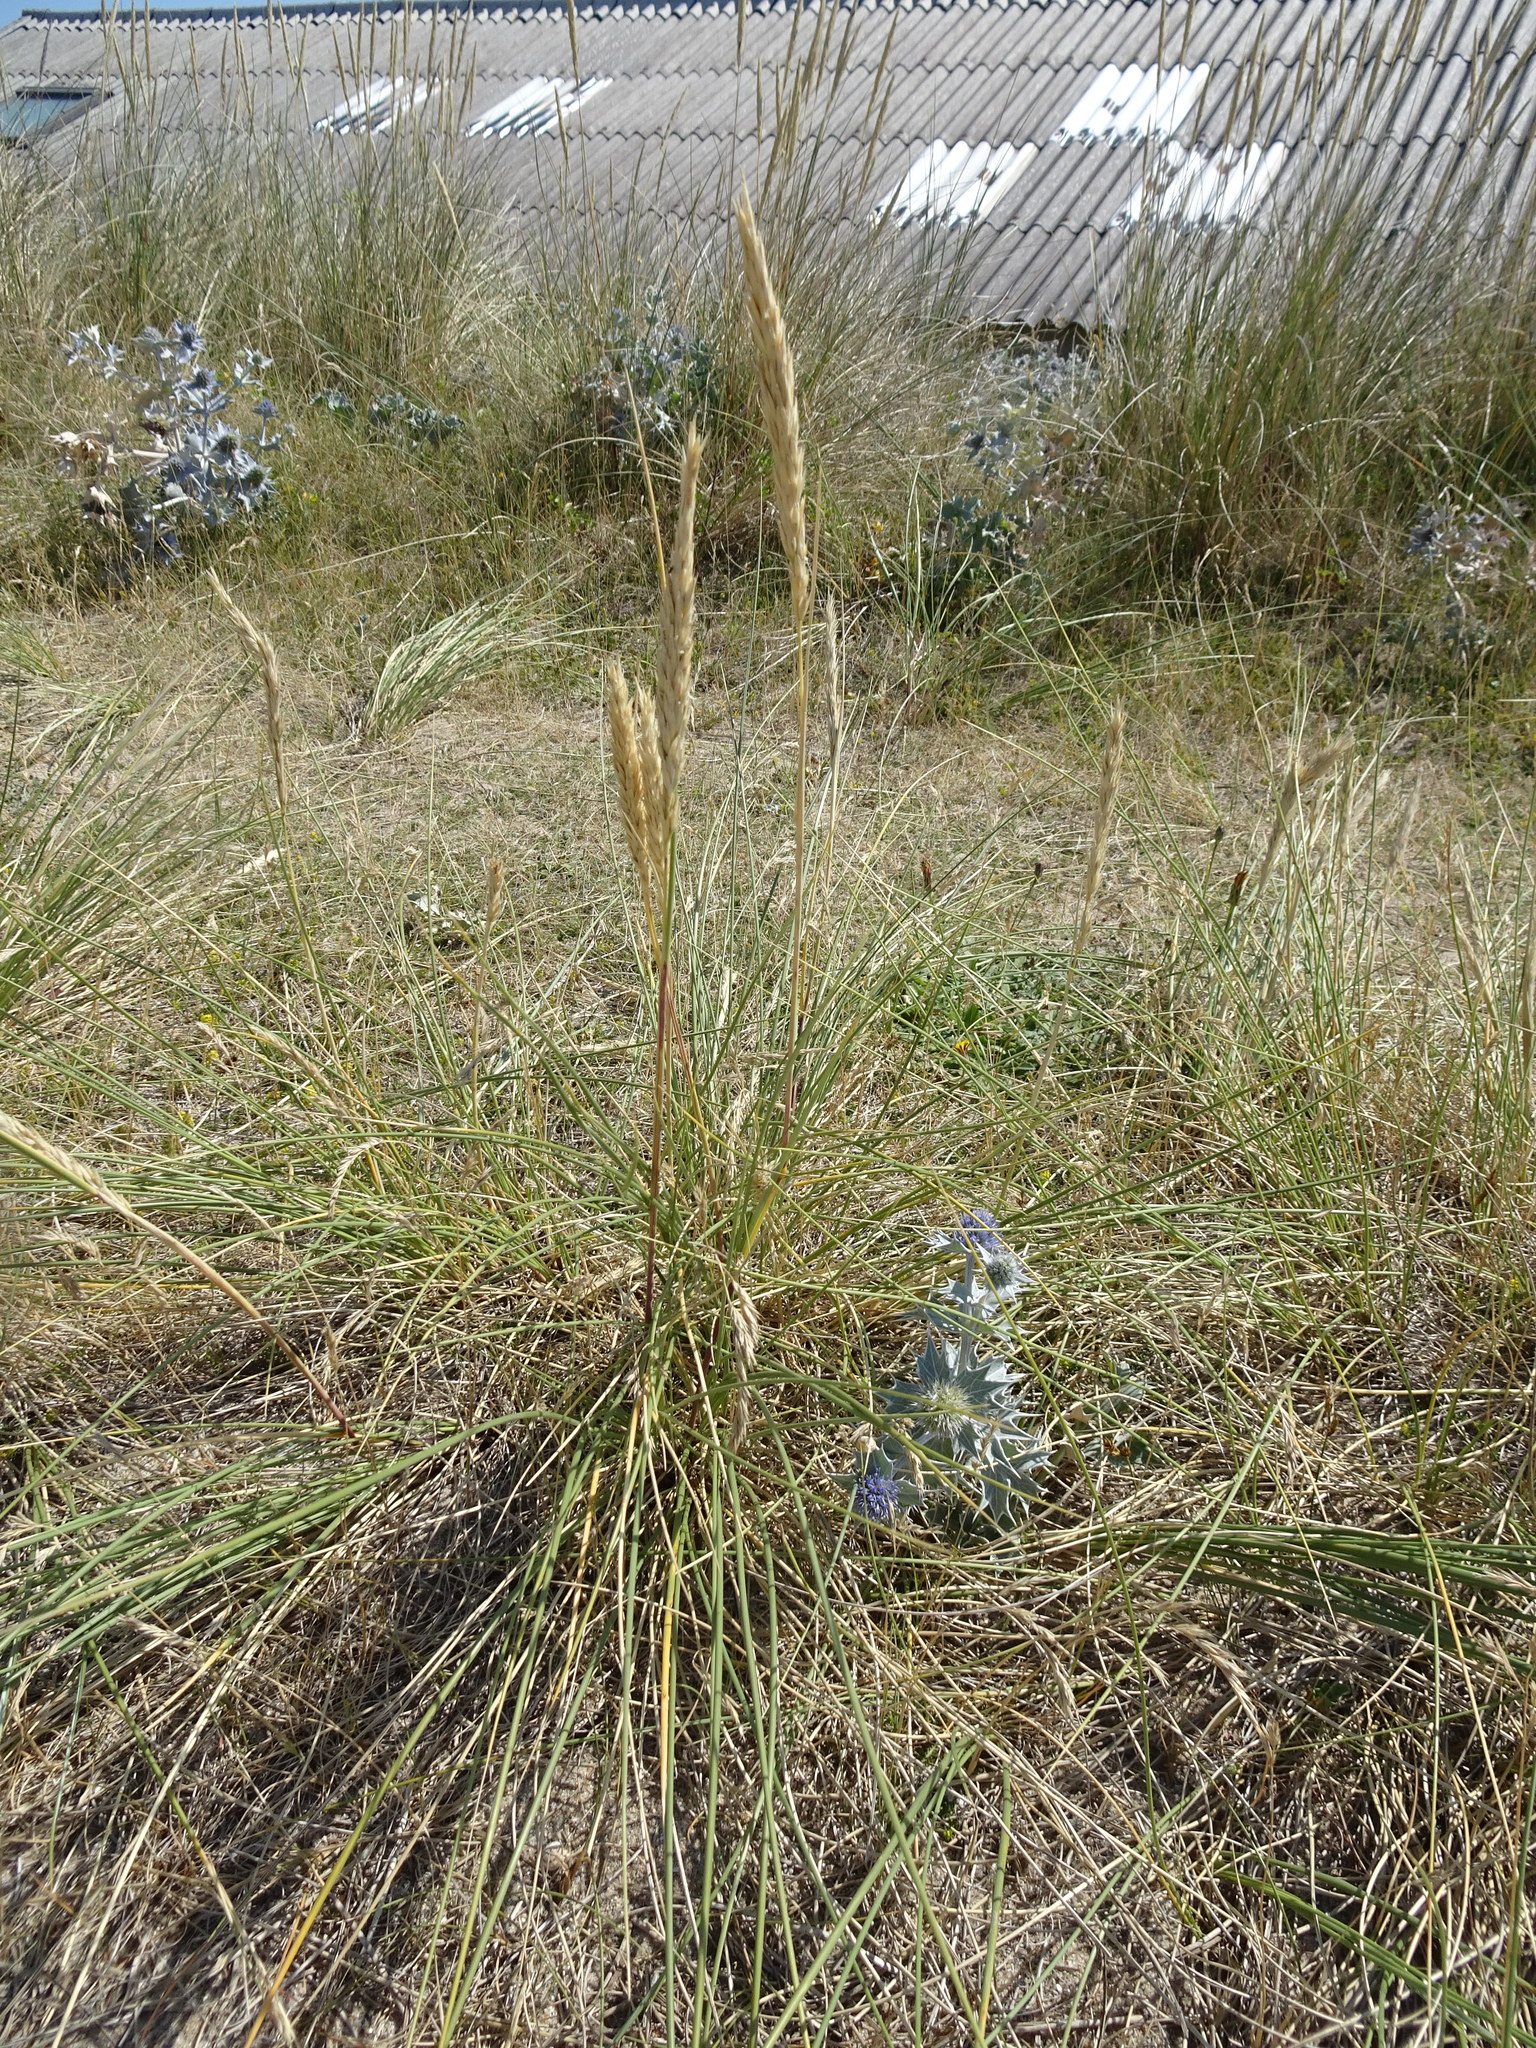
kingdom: Plantae
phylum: Tracheophyta
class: Liliopsida
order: Poales
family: Poaceae
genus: Calamagrostis
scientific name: Calamagrostis arenaria
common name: European beachgrass
